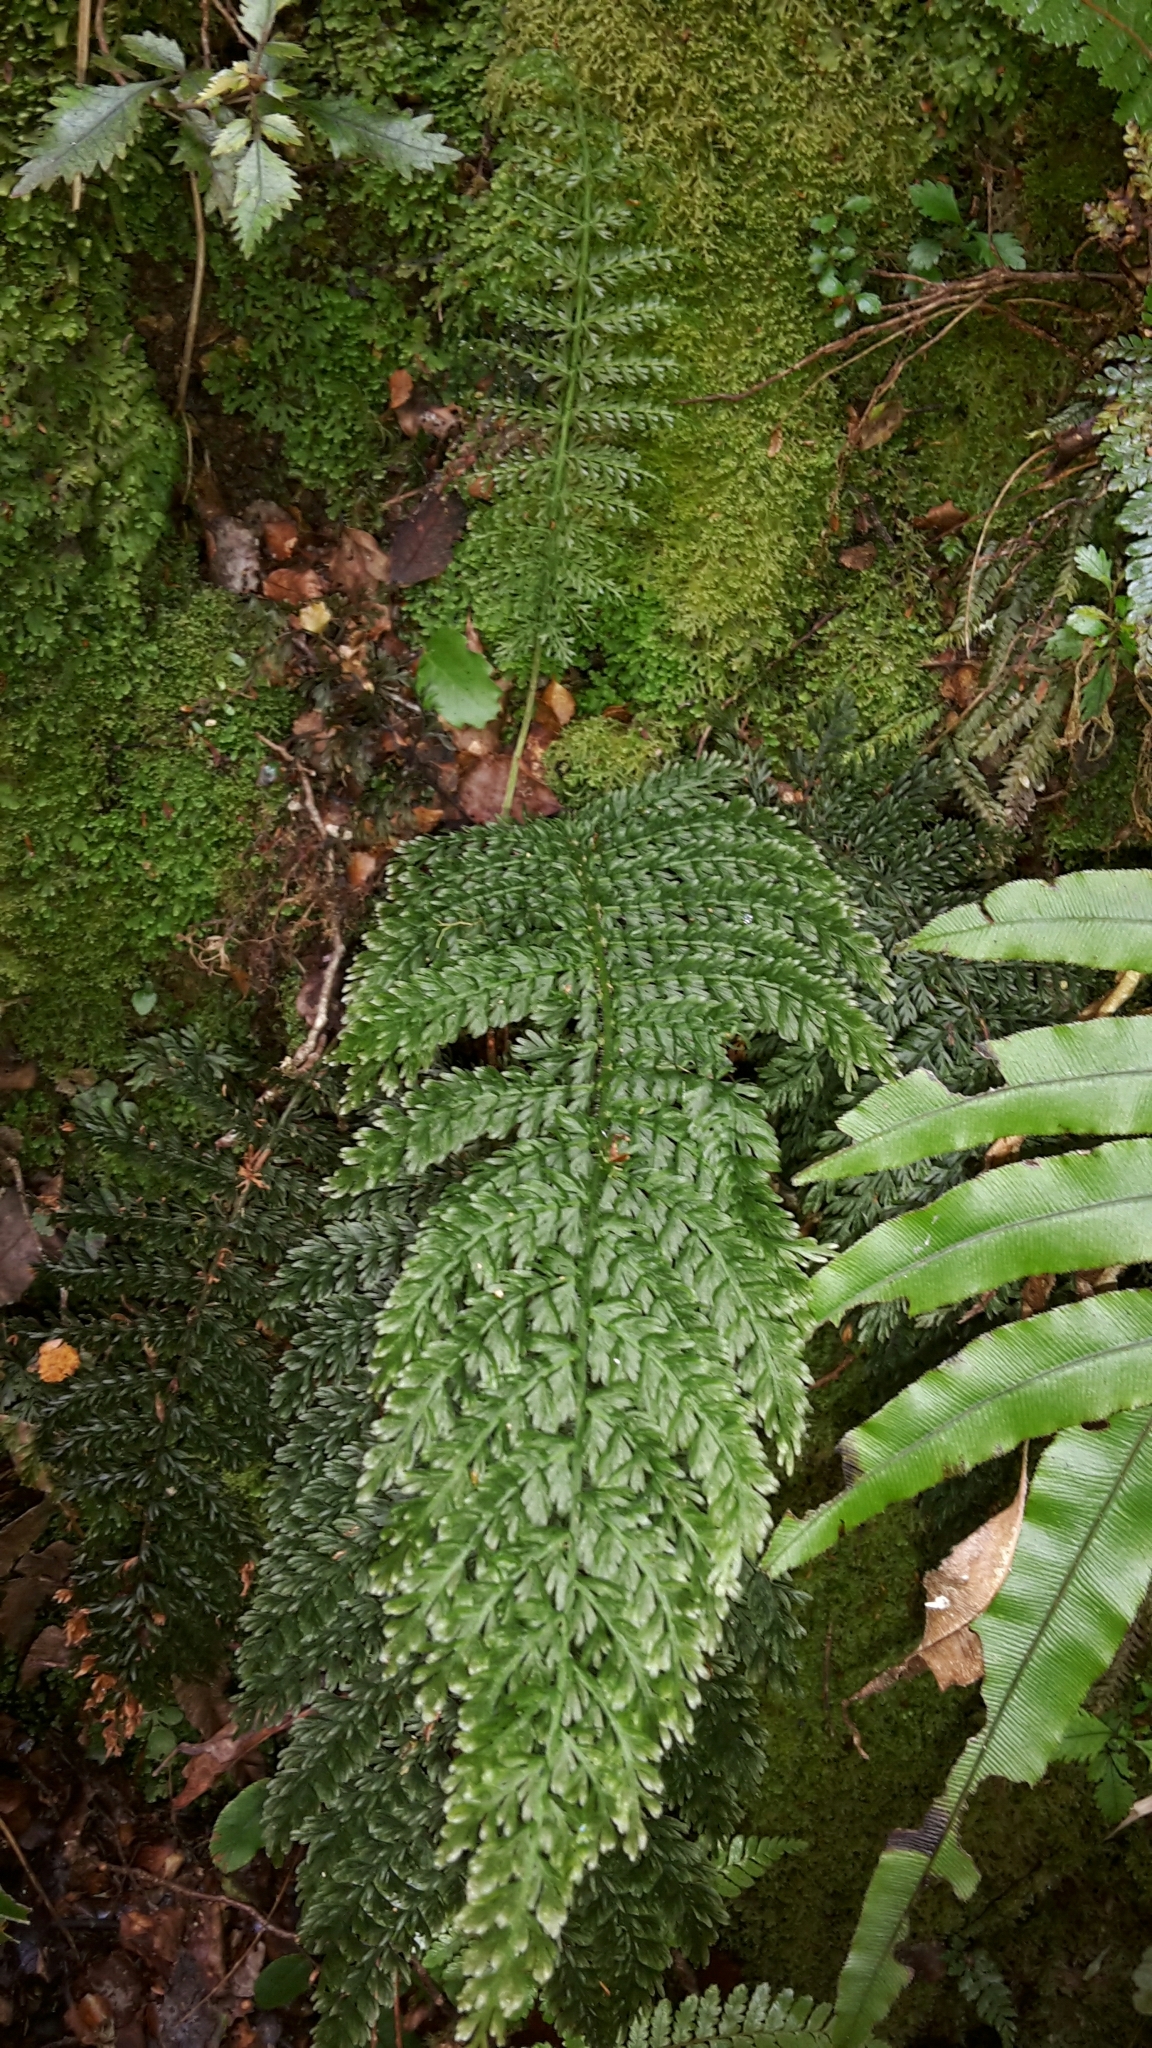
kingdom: Plantae
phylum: Tracheophyta
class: Polypodiopsida
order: Osmundales
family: Osmundaceae
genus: Leptopteris
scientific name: Leptopteris superba
